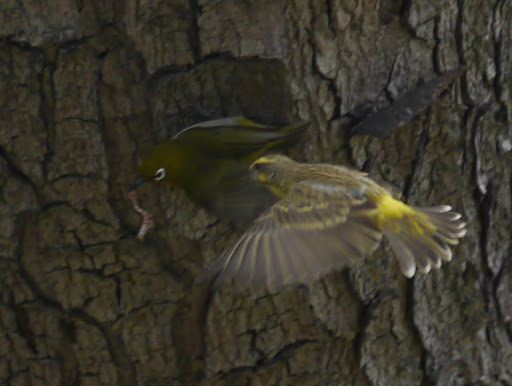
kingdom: Animalia
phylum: Chordata
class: Aves
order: Passeriformes
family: Zosteropidae
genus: Zosterops
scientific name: Zosterops japonicus
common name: Japanese white-eye
